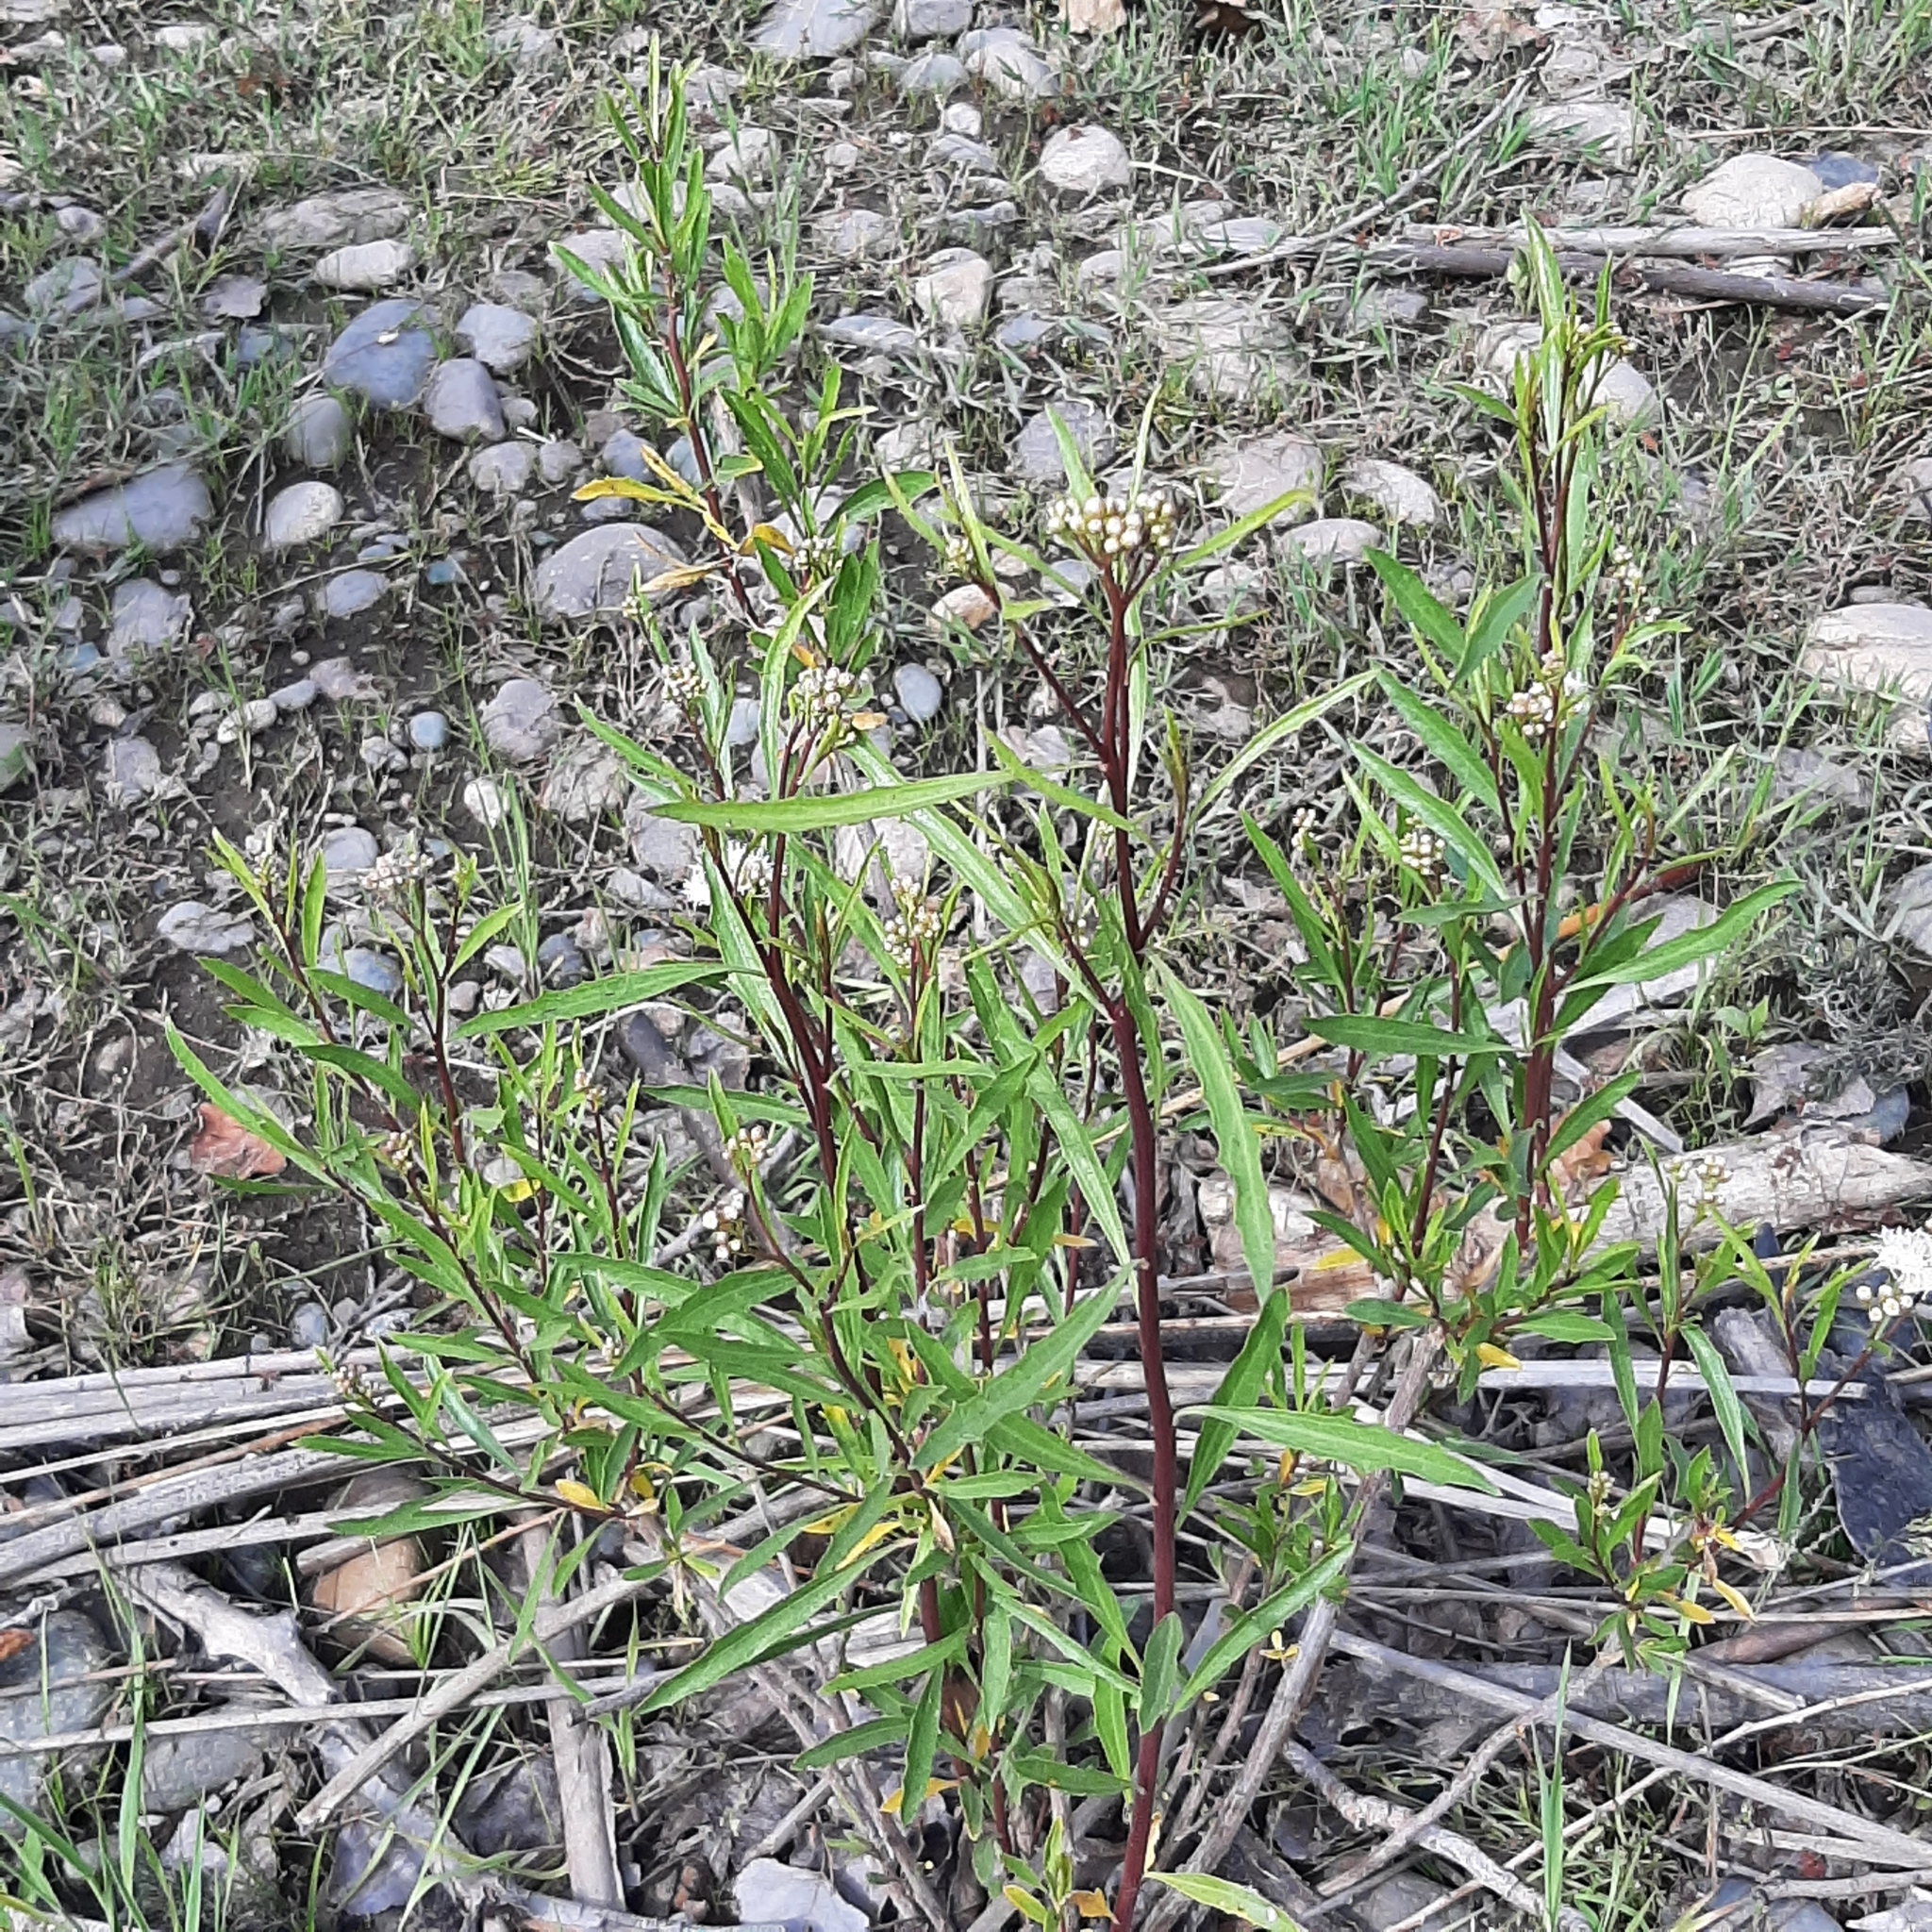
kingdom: Plantae
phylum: Tracheophyta
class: Magnoliopsida
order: Asterales
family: Asteraceae
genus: Baccharis
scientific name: Baccharis salicifolia
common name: Sticky baccharis
